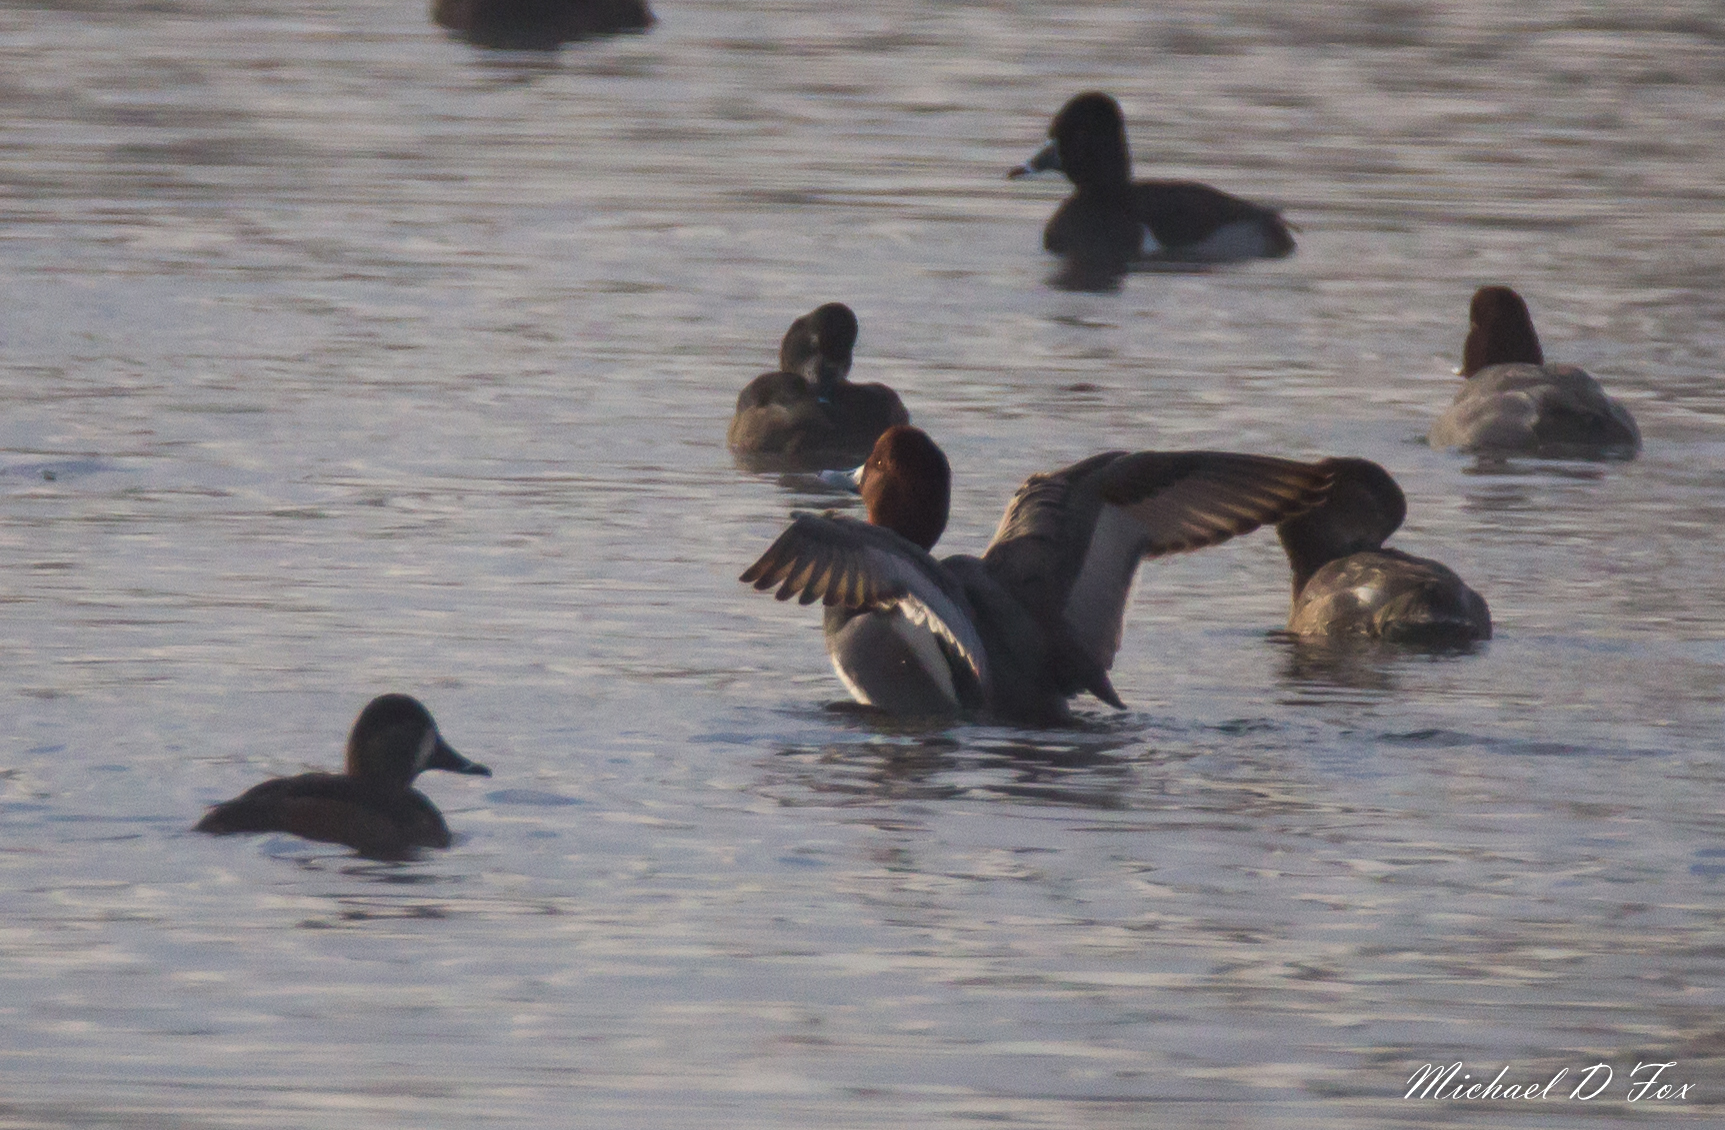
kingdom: Animalia
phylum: Chordata
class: Aves
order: Anseriformes
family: Anatidae
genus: Aythya
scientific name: Aythya americana
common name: Redhead
